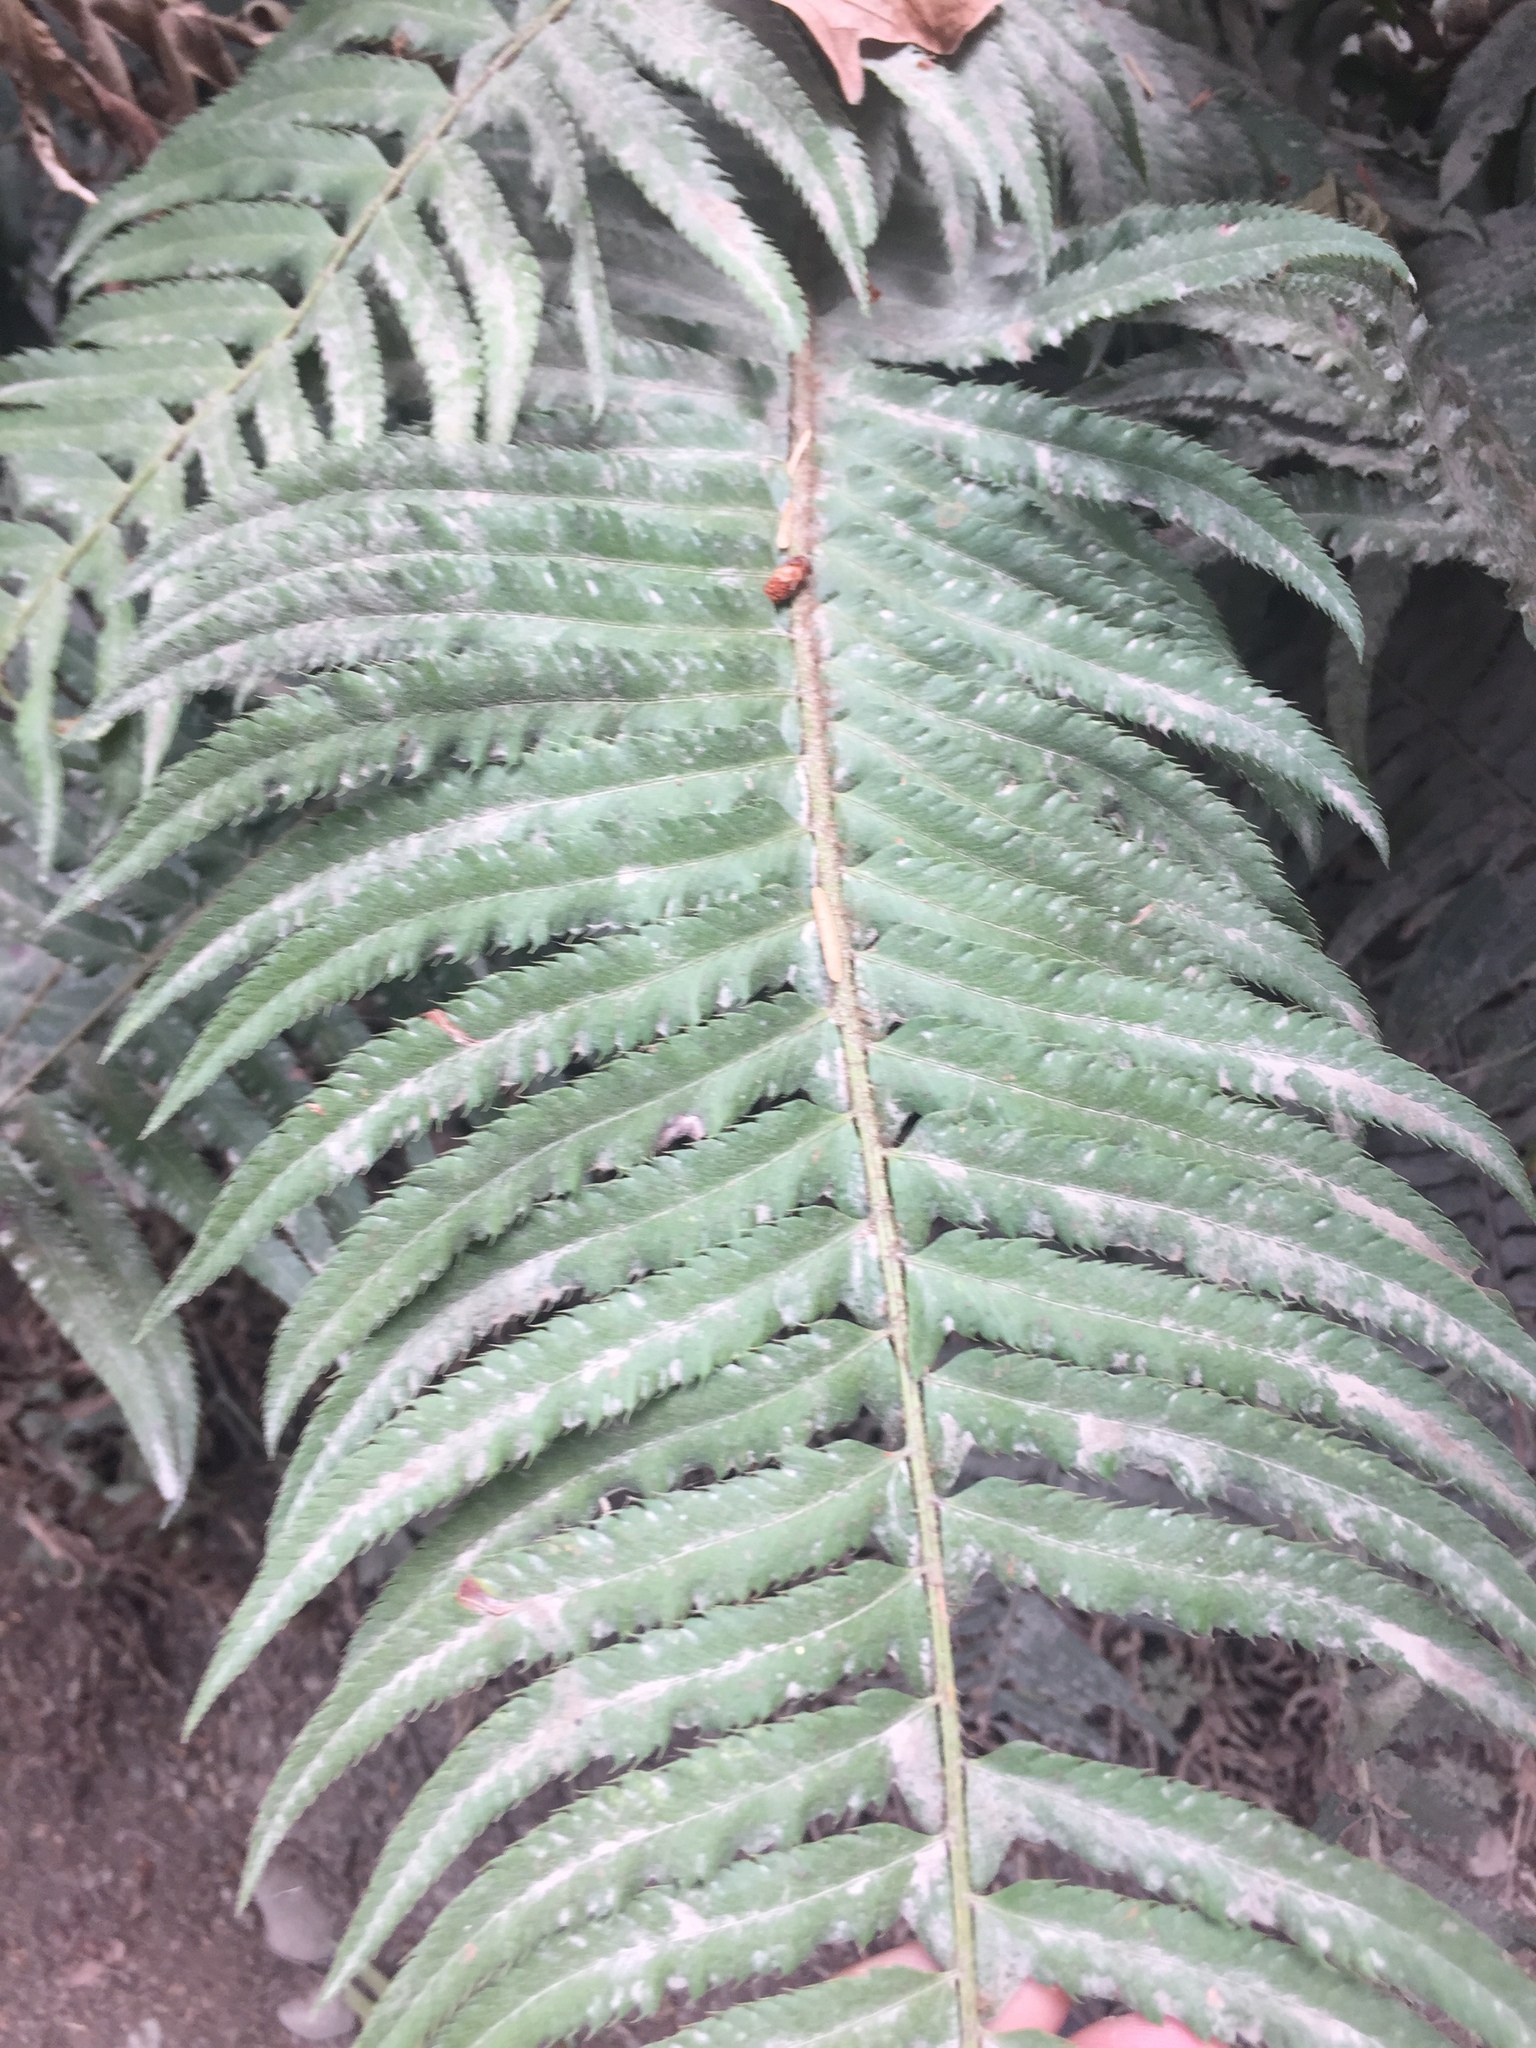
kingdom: Plantae
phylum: Tracheophyta
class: Polypodiopsida
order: Polypodiales
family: Dryopteridaceae
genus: Polystichum
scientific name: Polystichum munitum
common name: Western sword-fern
